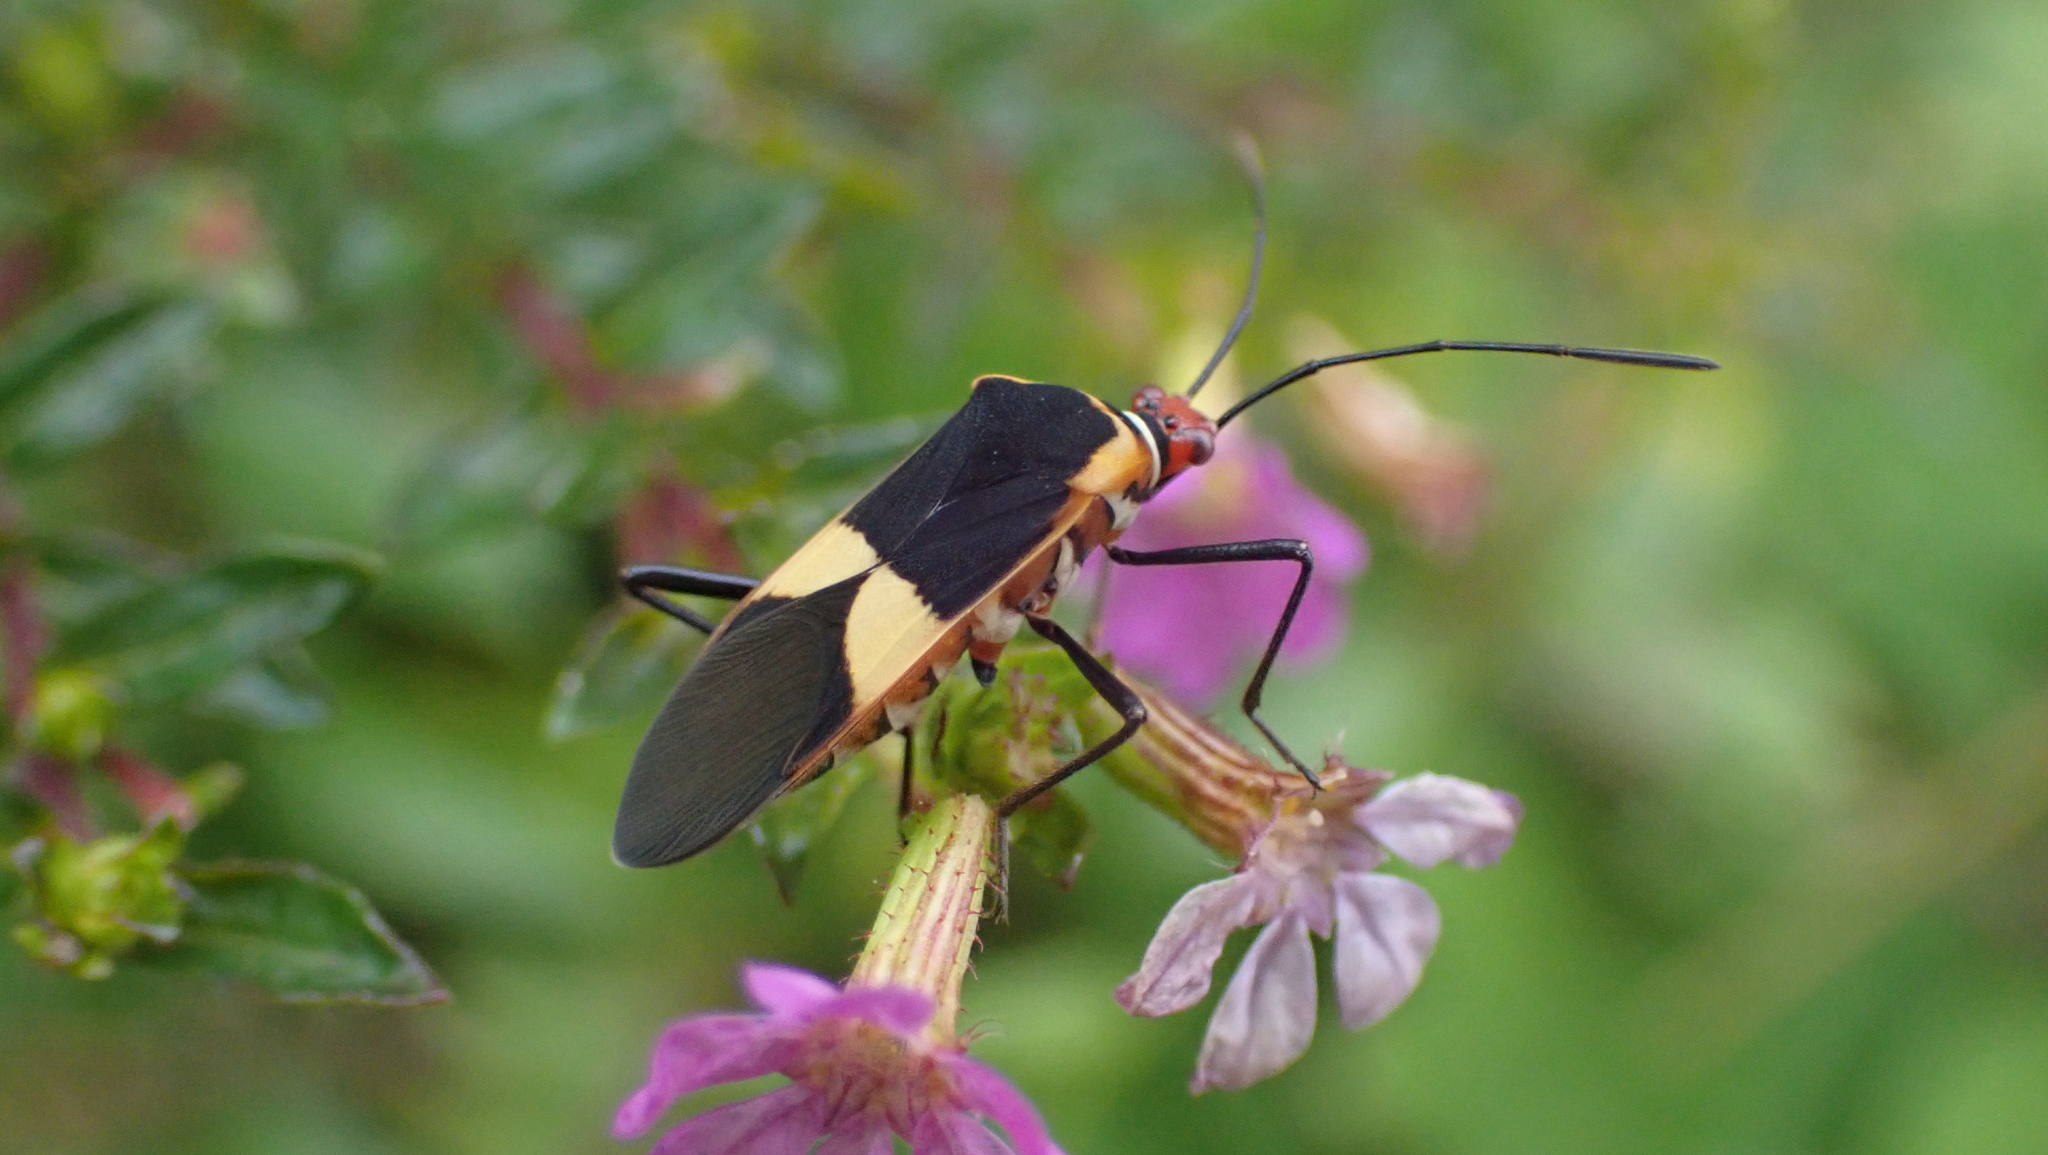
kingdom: Animalia
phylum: Arthropoda
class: Insecta
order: Hemiptera
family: Coreidae
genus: Hypselonotus
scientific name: Hypselonotus interruptus
